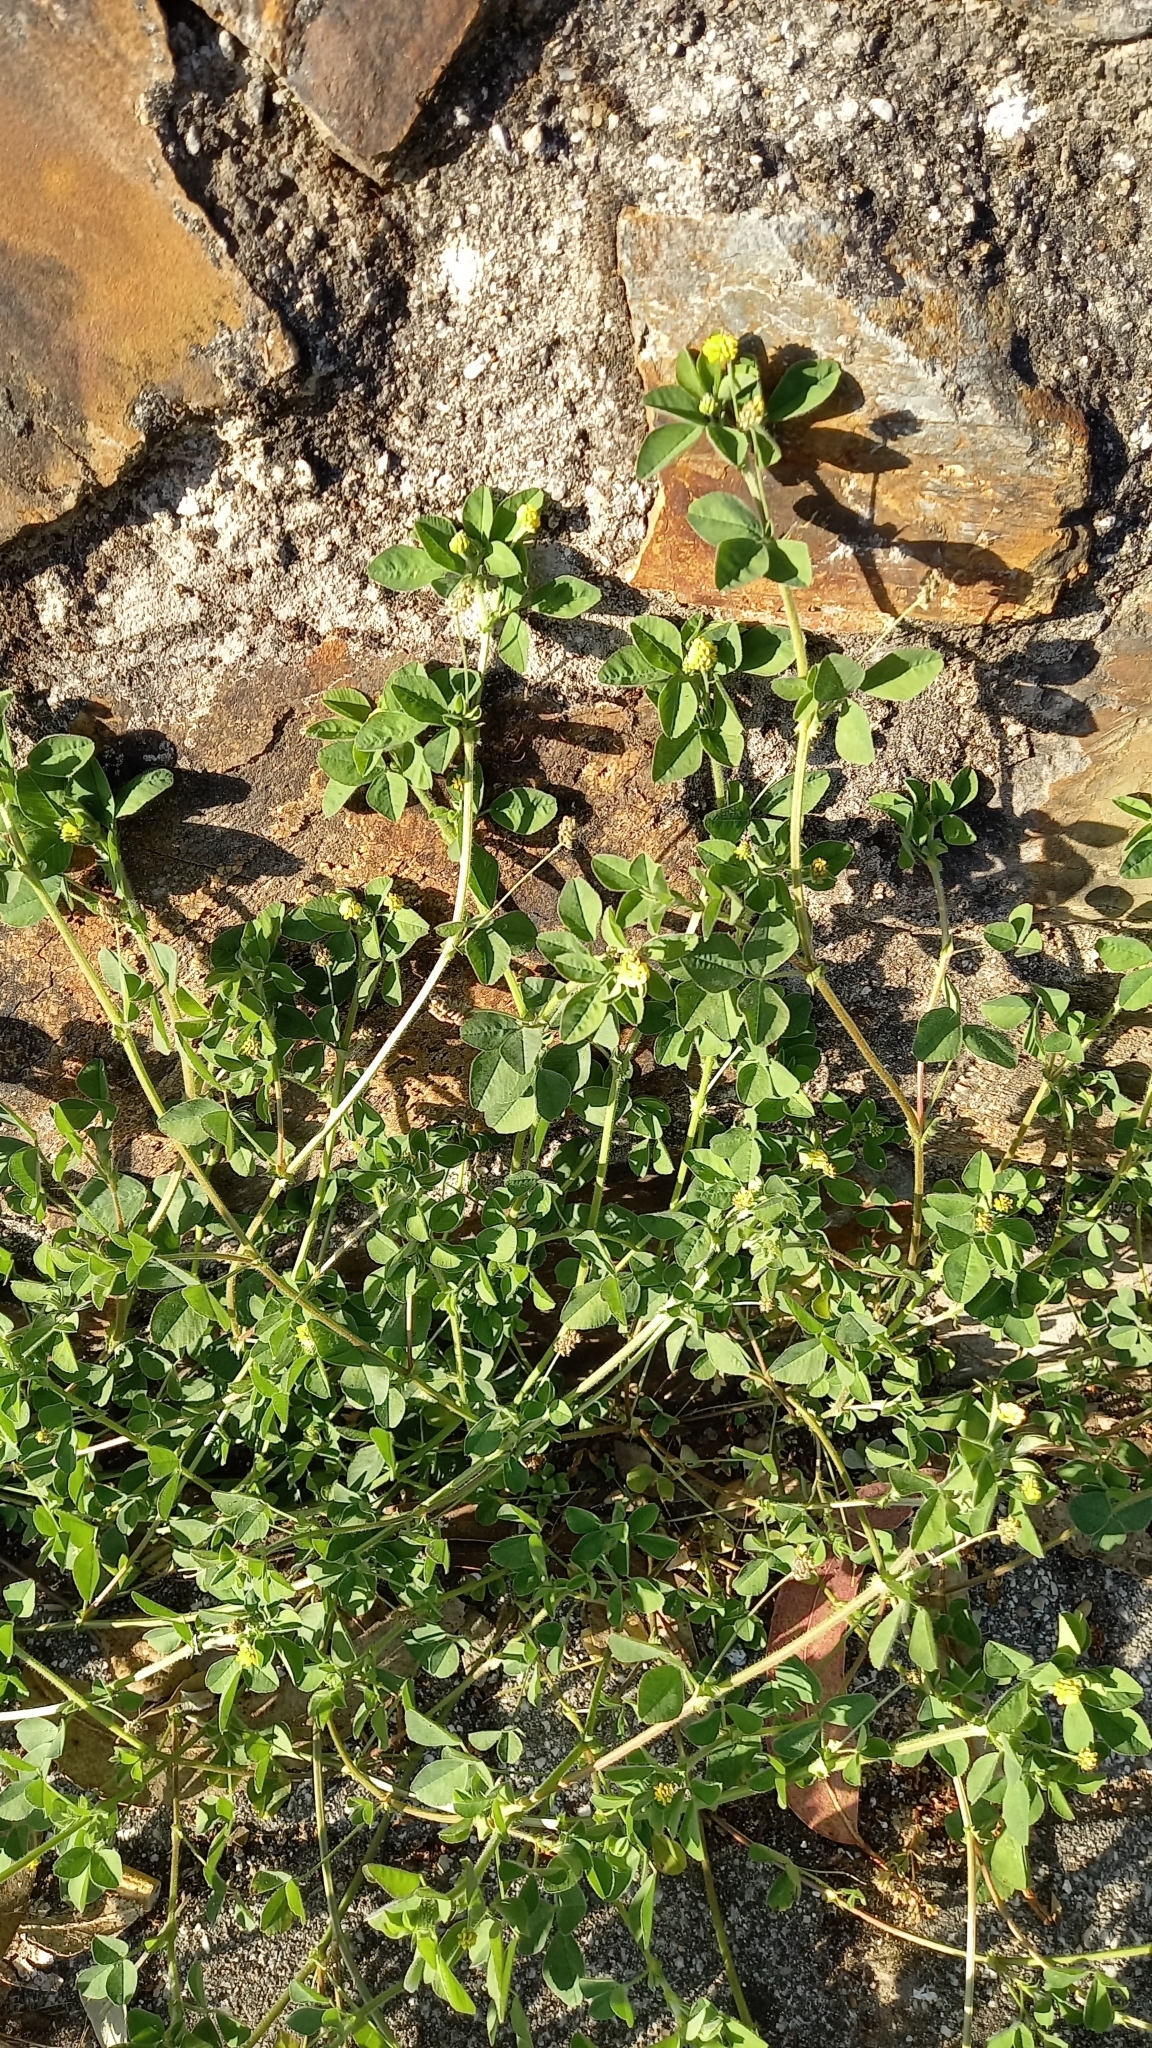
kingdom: Plantae
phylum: Tracheophyta
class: Magnoliopsida
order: Fabales
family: Fabaceae
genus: Medicago
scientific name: Medicago lupulina
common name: Black medick
